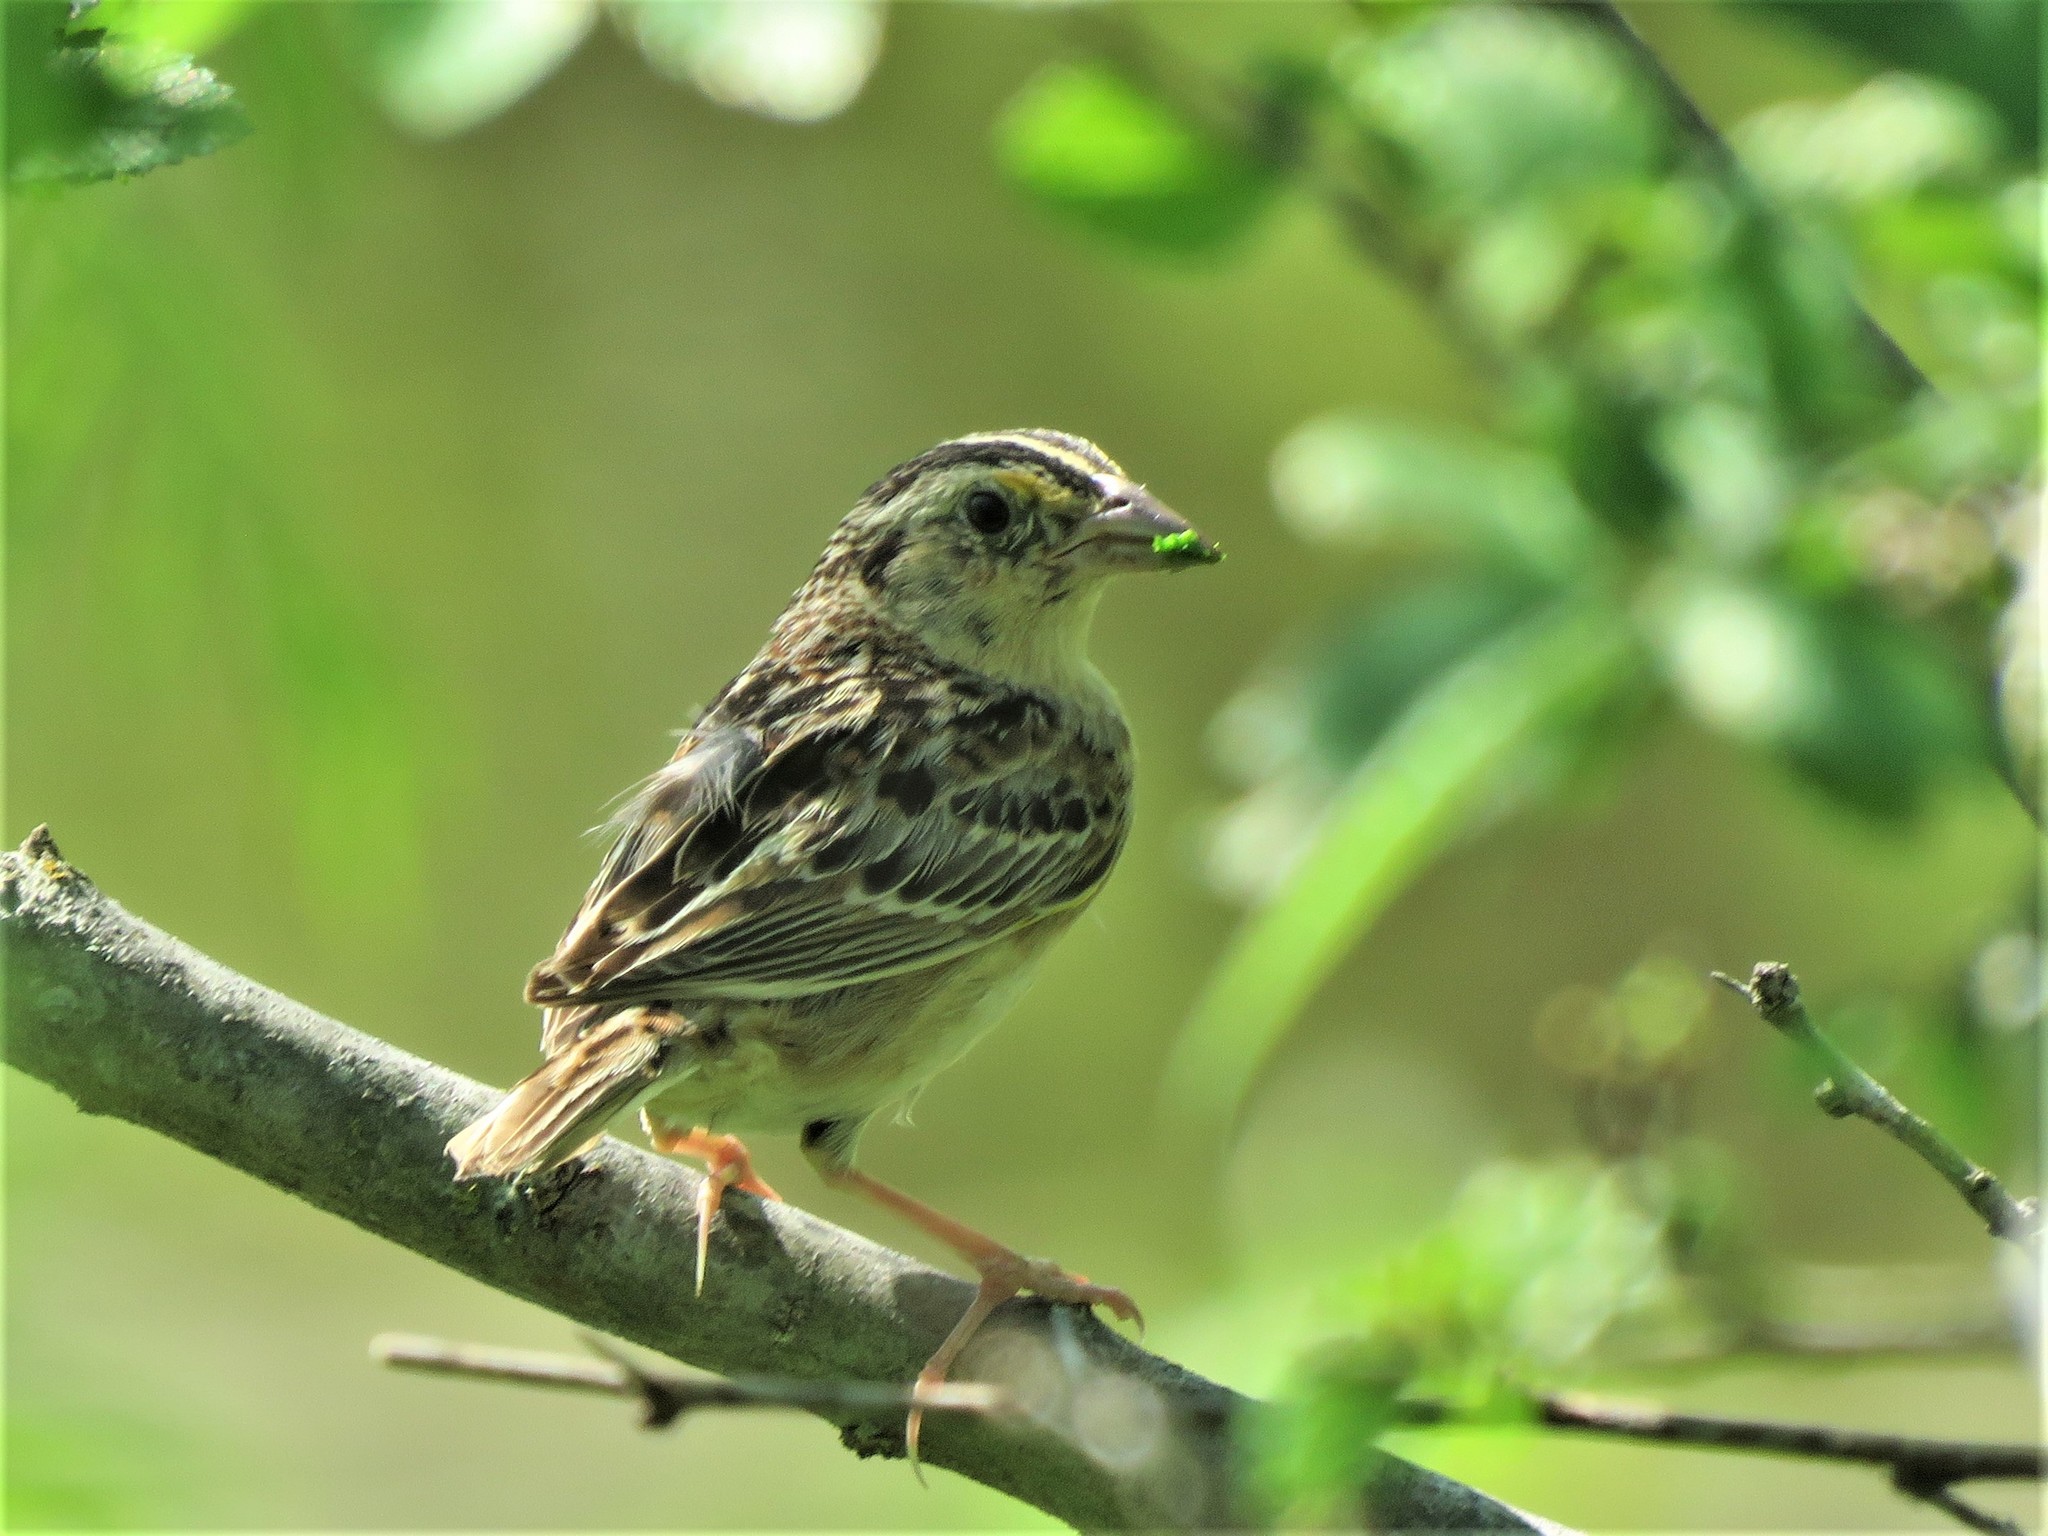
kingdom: Animalia
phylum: Chordata
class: Aves
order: Passeriformes
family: Passerellidae
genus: Ammodramus
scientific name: Ammodramus savannarum
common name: Grasshopper sparrow
